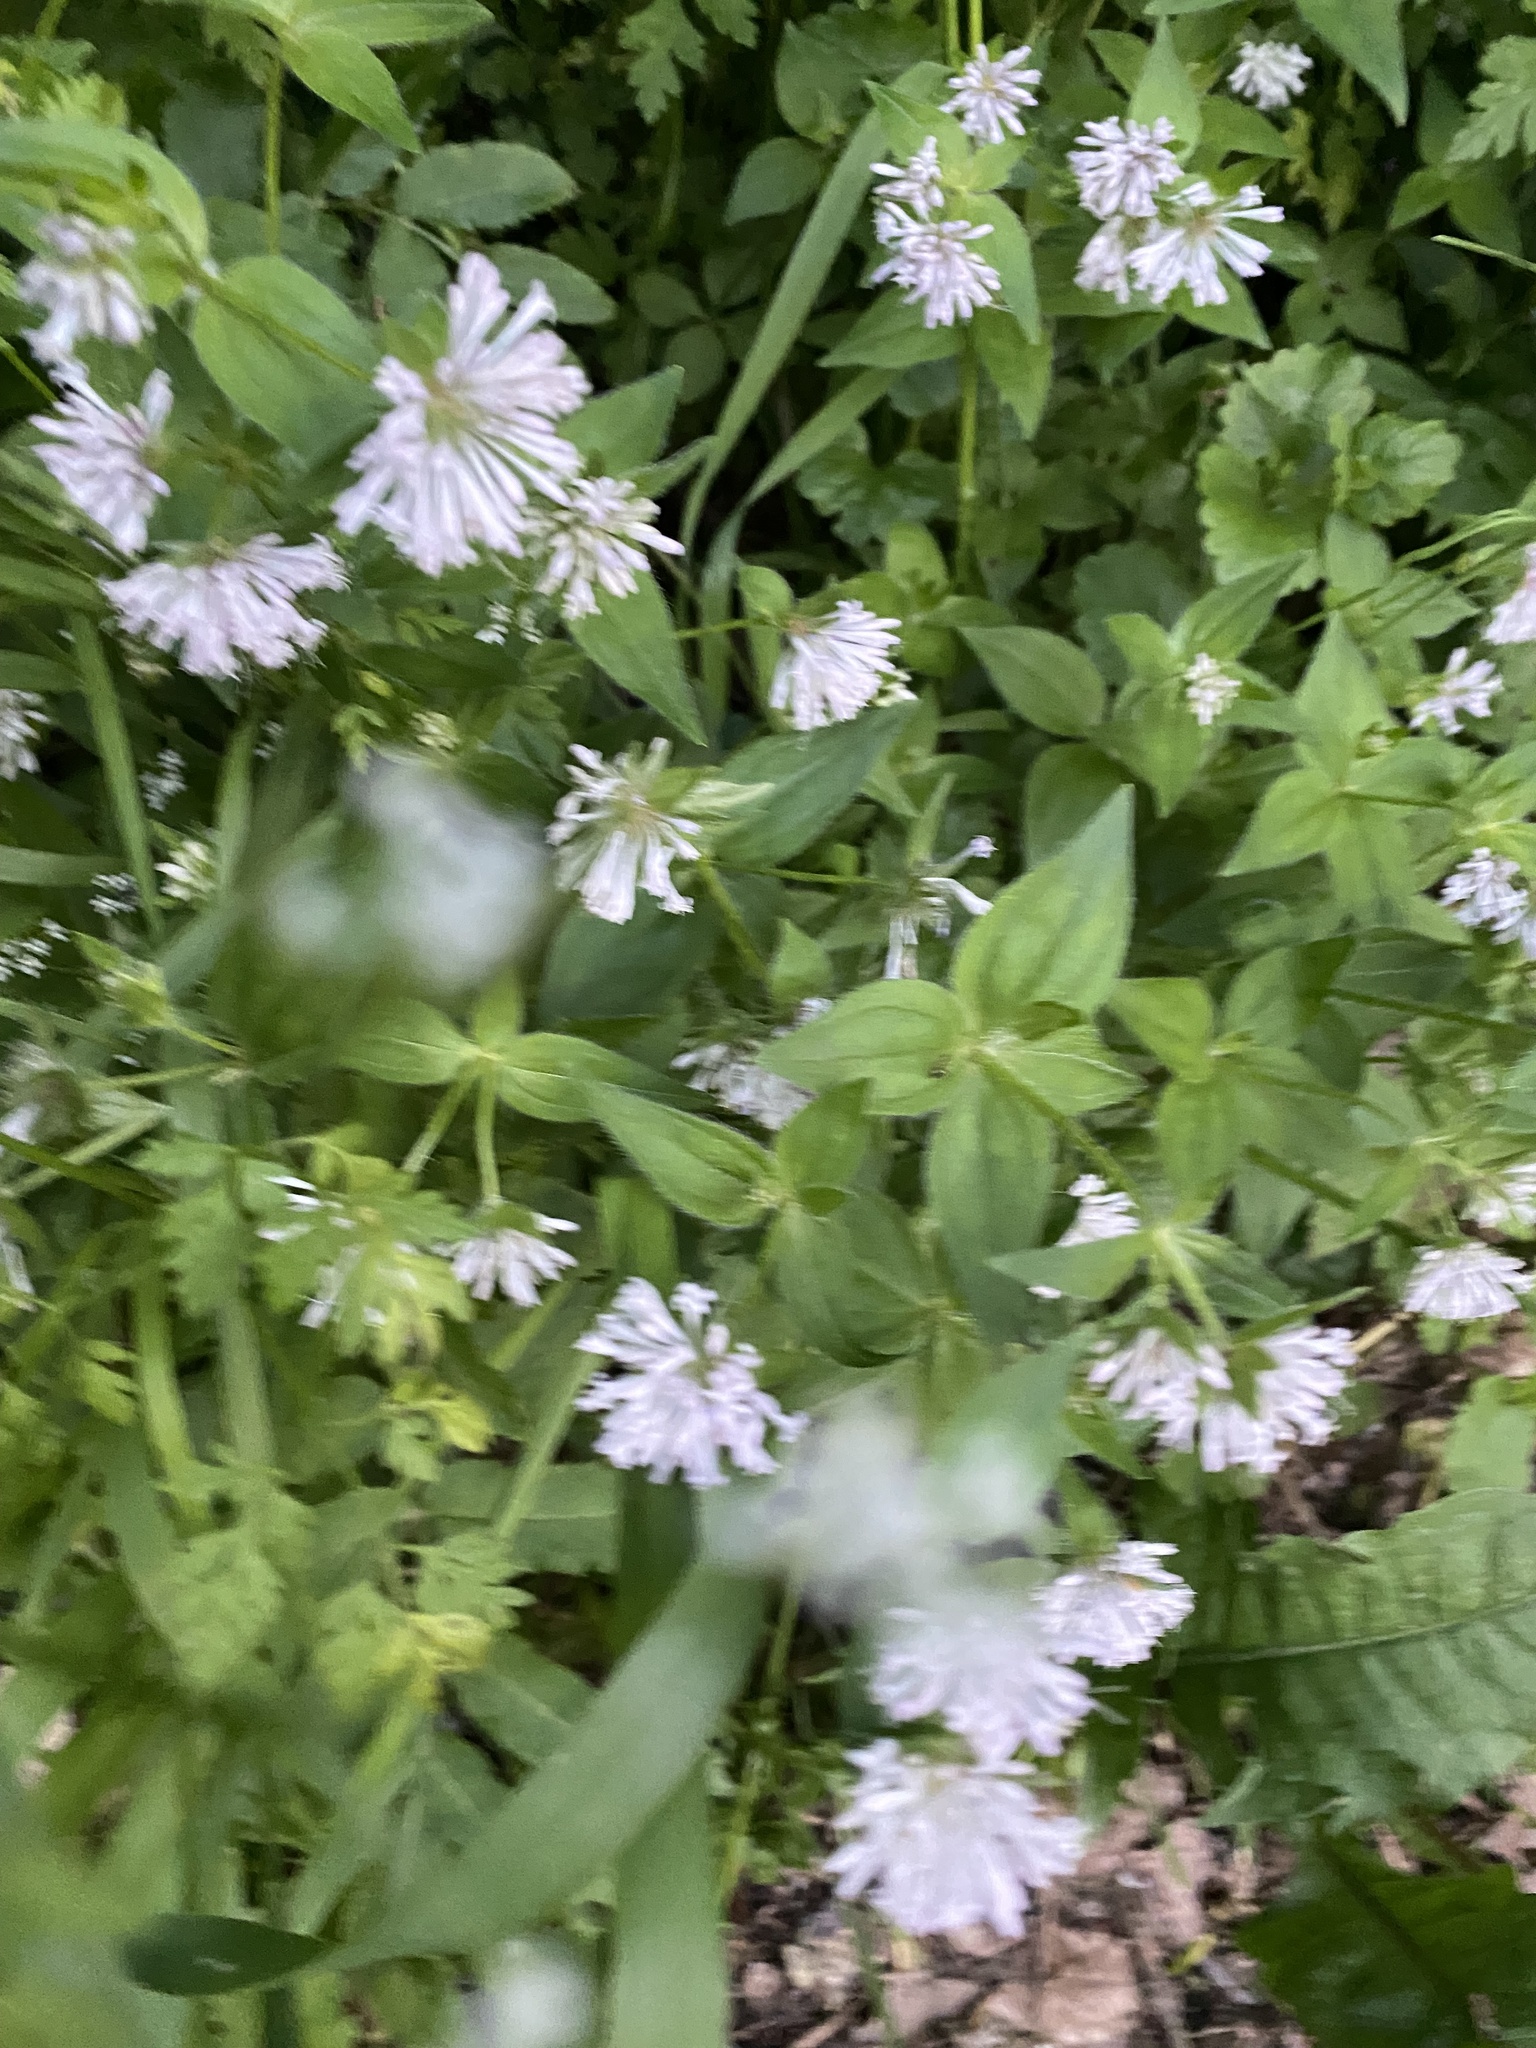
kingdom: Plantae
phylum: Tracheophyta
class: Magnoliopsida
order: Gentianales
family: Rubiaceae
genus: Asperula
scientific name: Asperula taurina
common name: Pink woodruff
